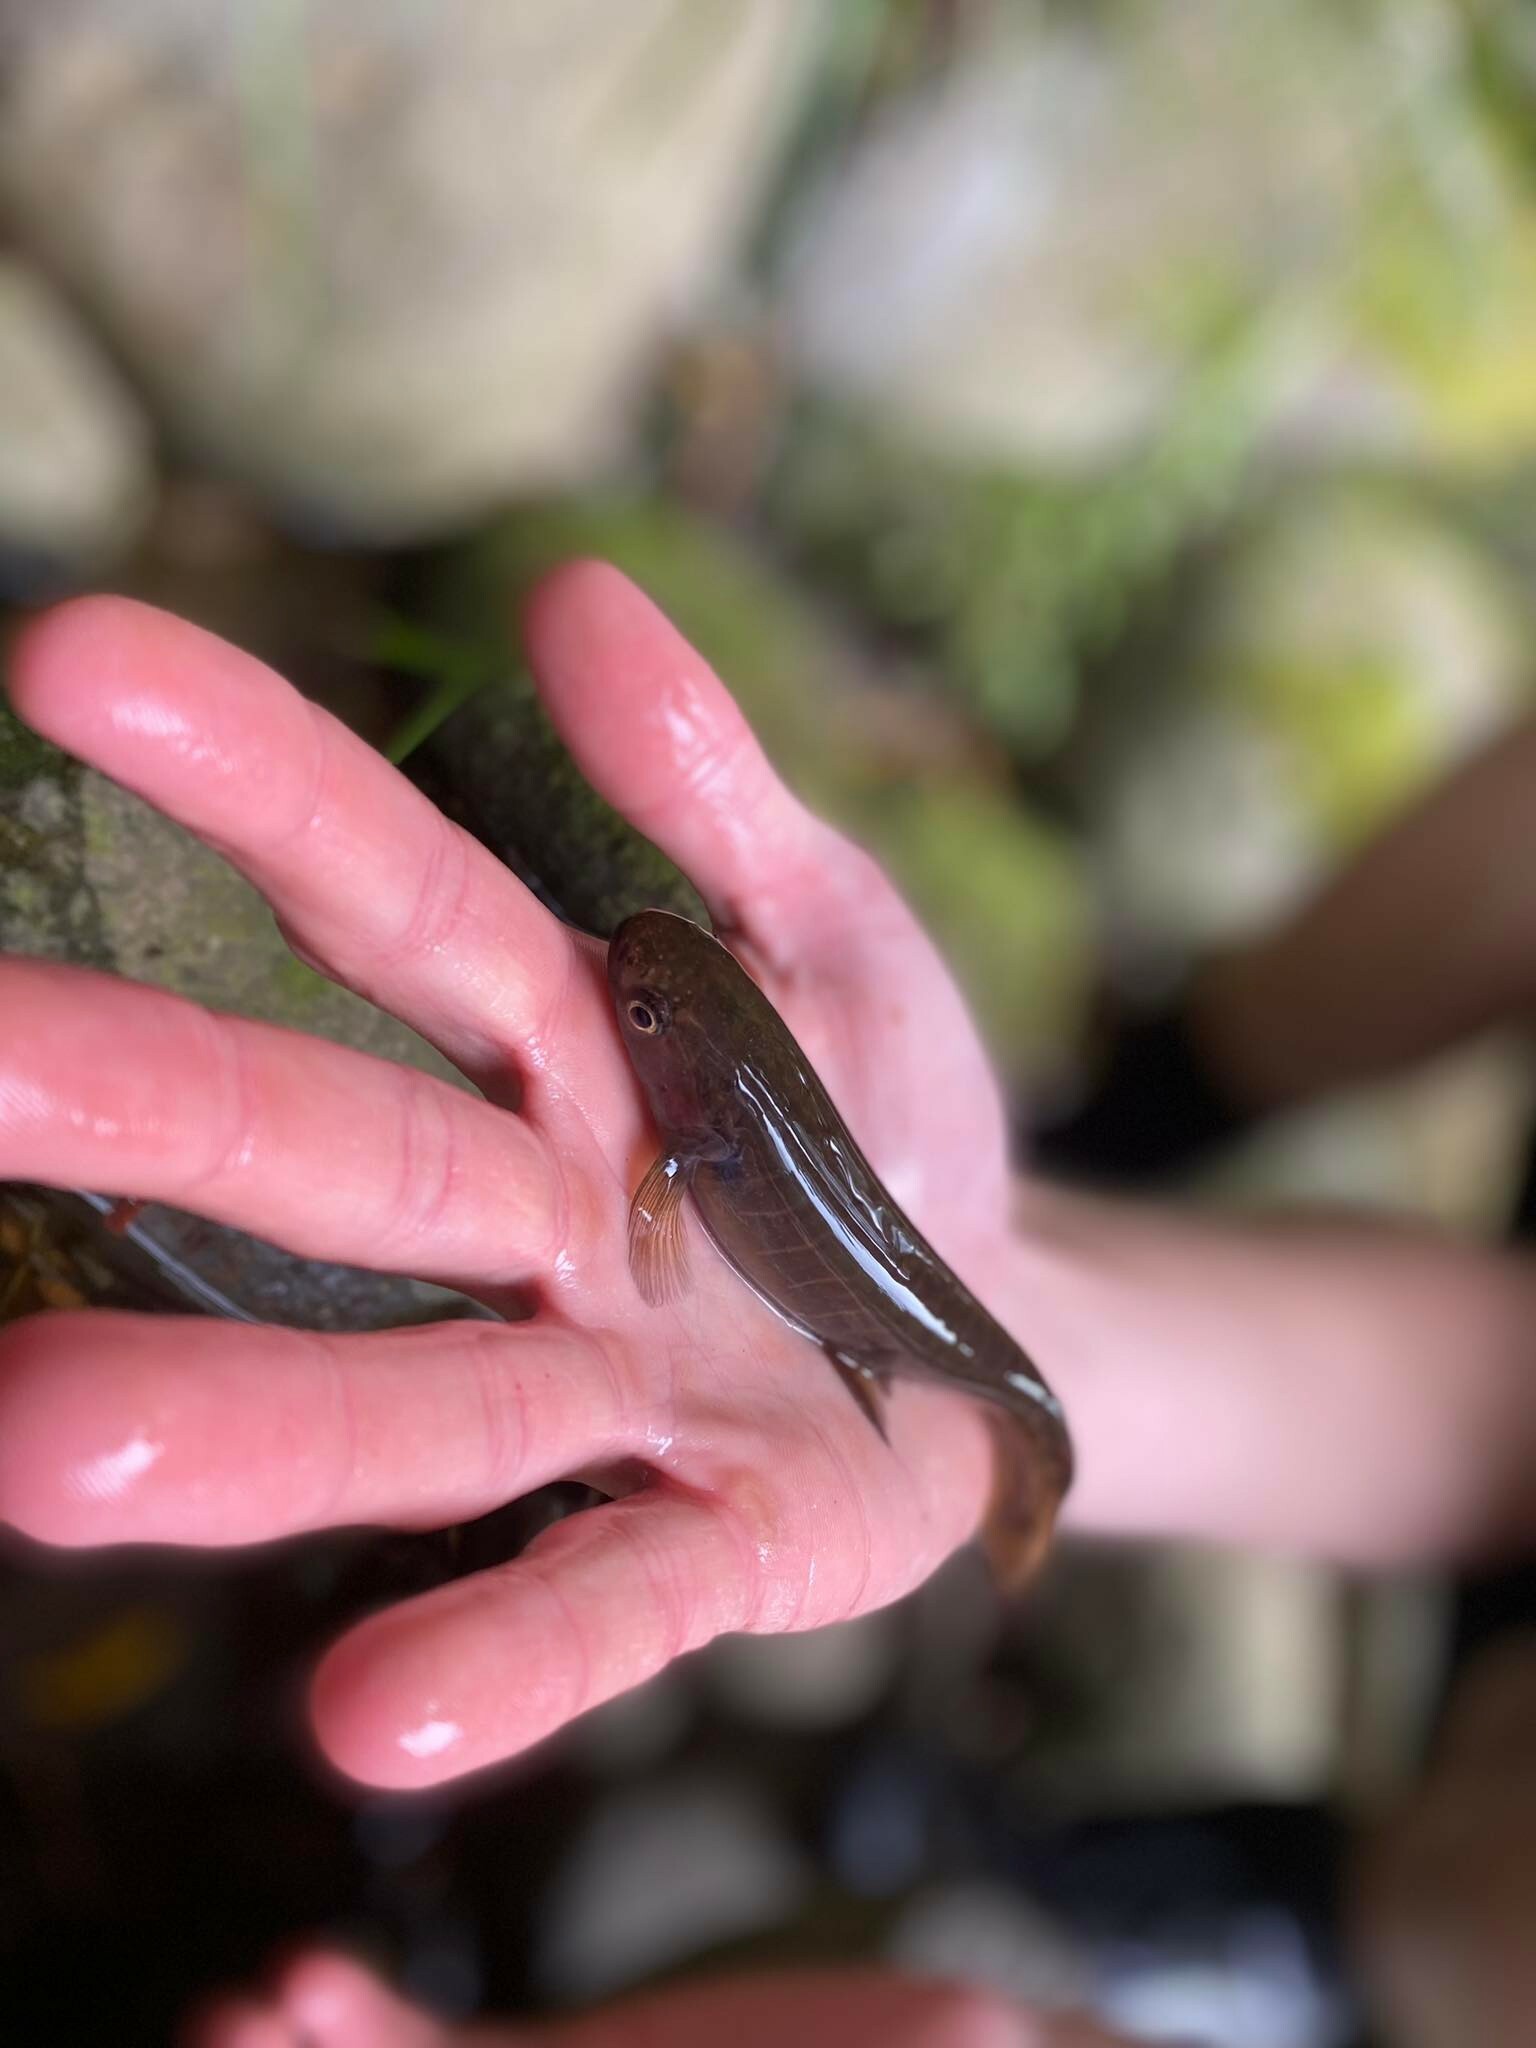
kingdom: Animalia
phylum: Chordata
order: Osmeriformes
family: Galaxiidae
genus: Galaxias
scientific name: Galaxias fasciatus
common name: Banded kokopu
